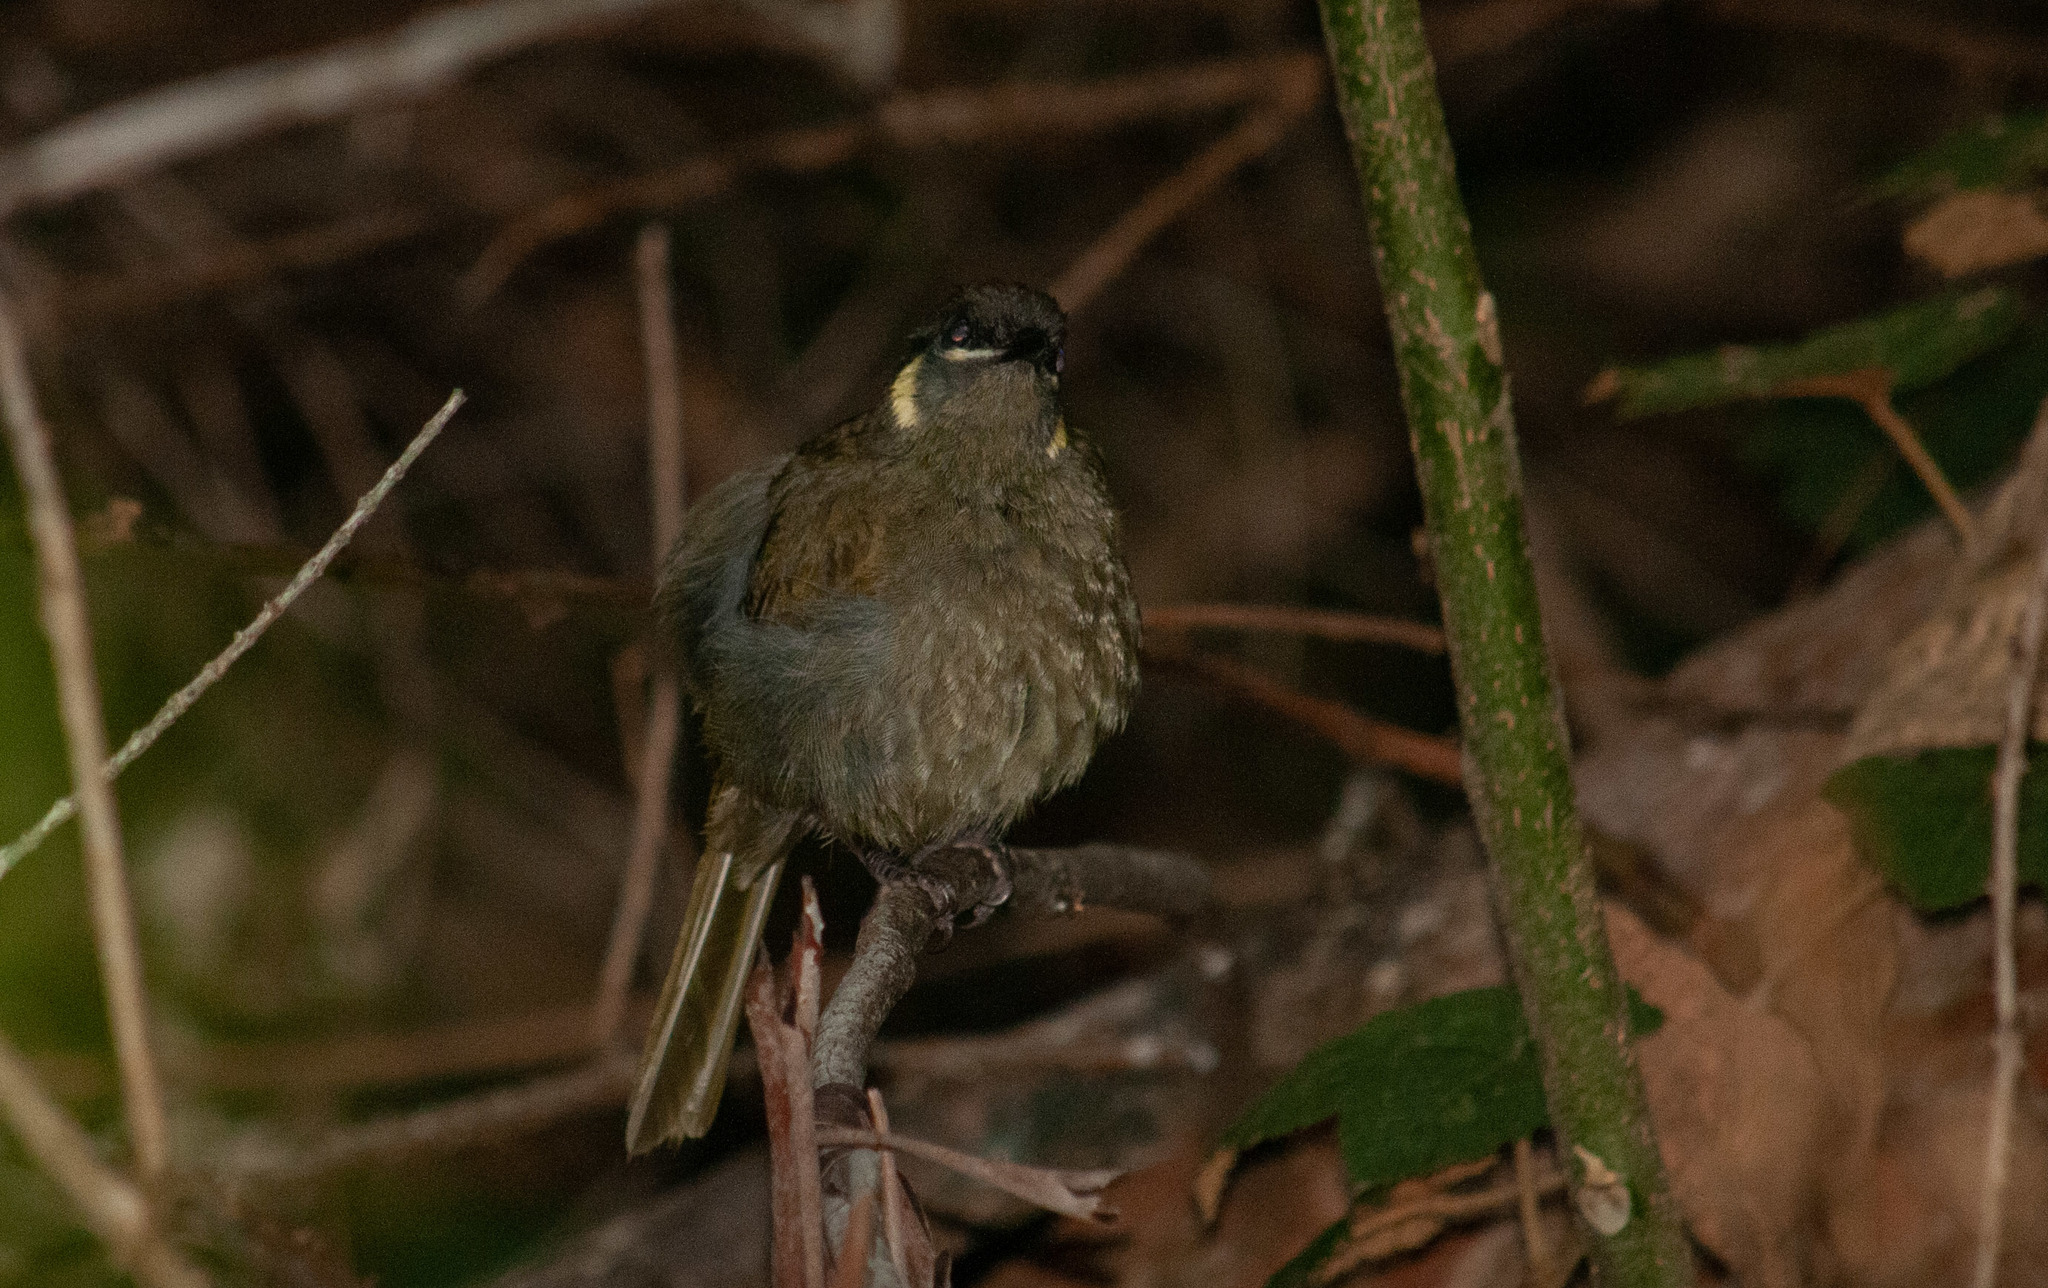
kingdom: Animalia
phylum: Chordata
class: Aves
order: Passeriformes
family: Meliphagidae
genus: Meliphaga
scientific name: Meliphaga lewinii
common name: Lewin's honeyeater
